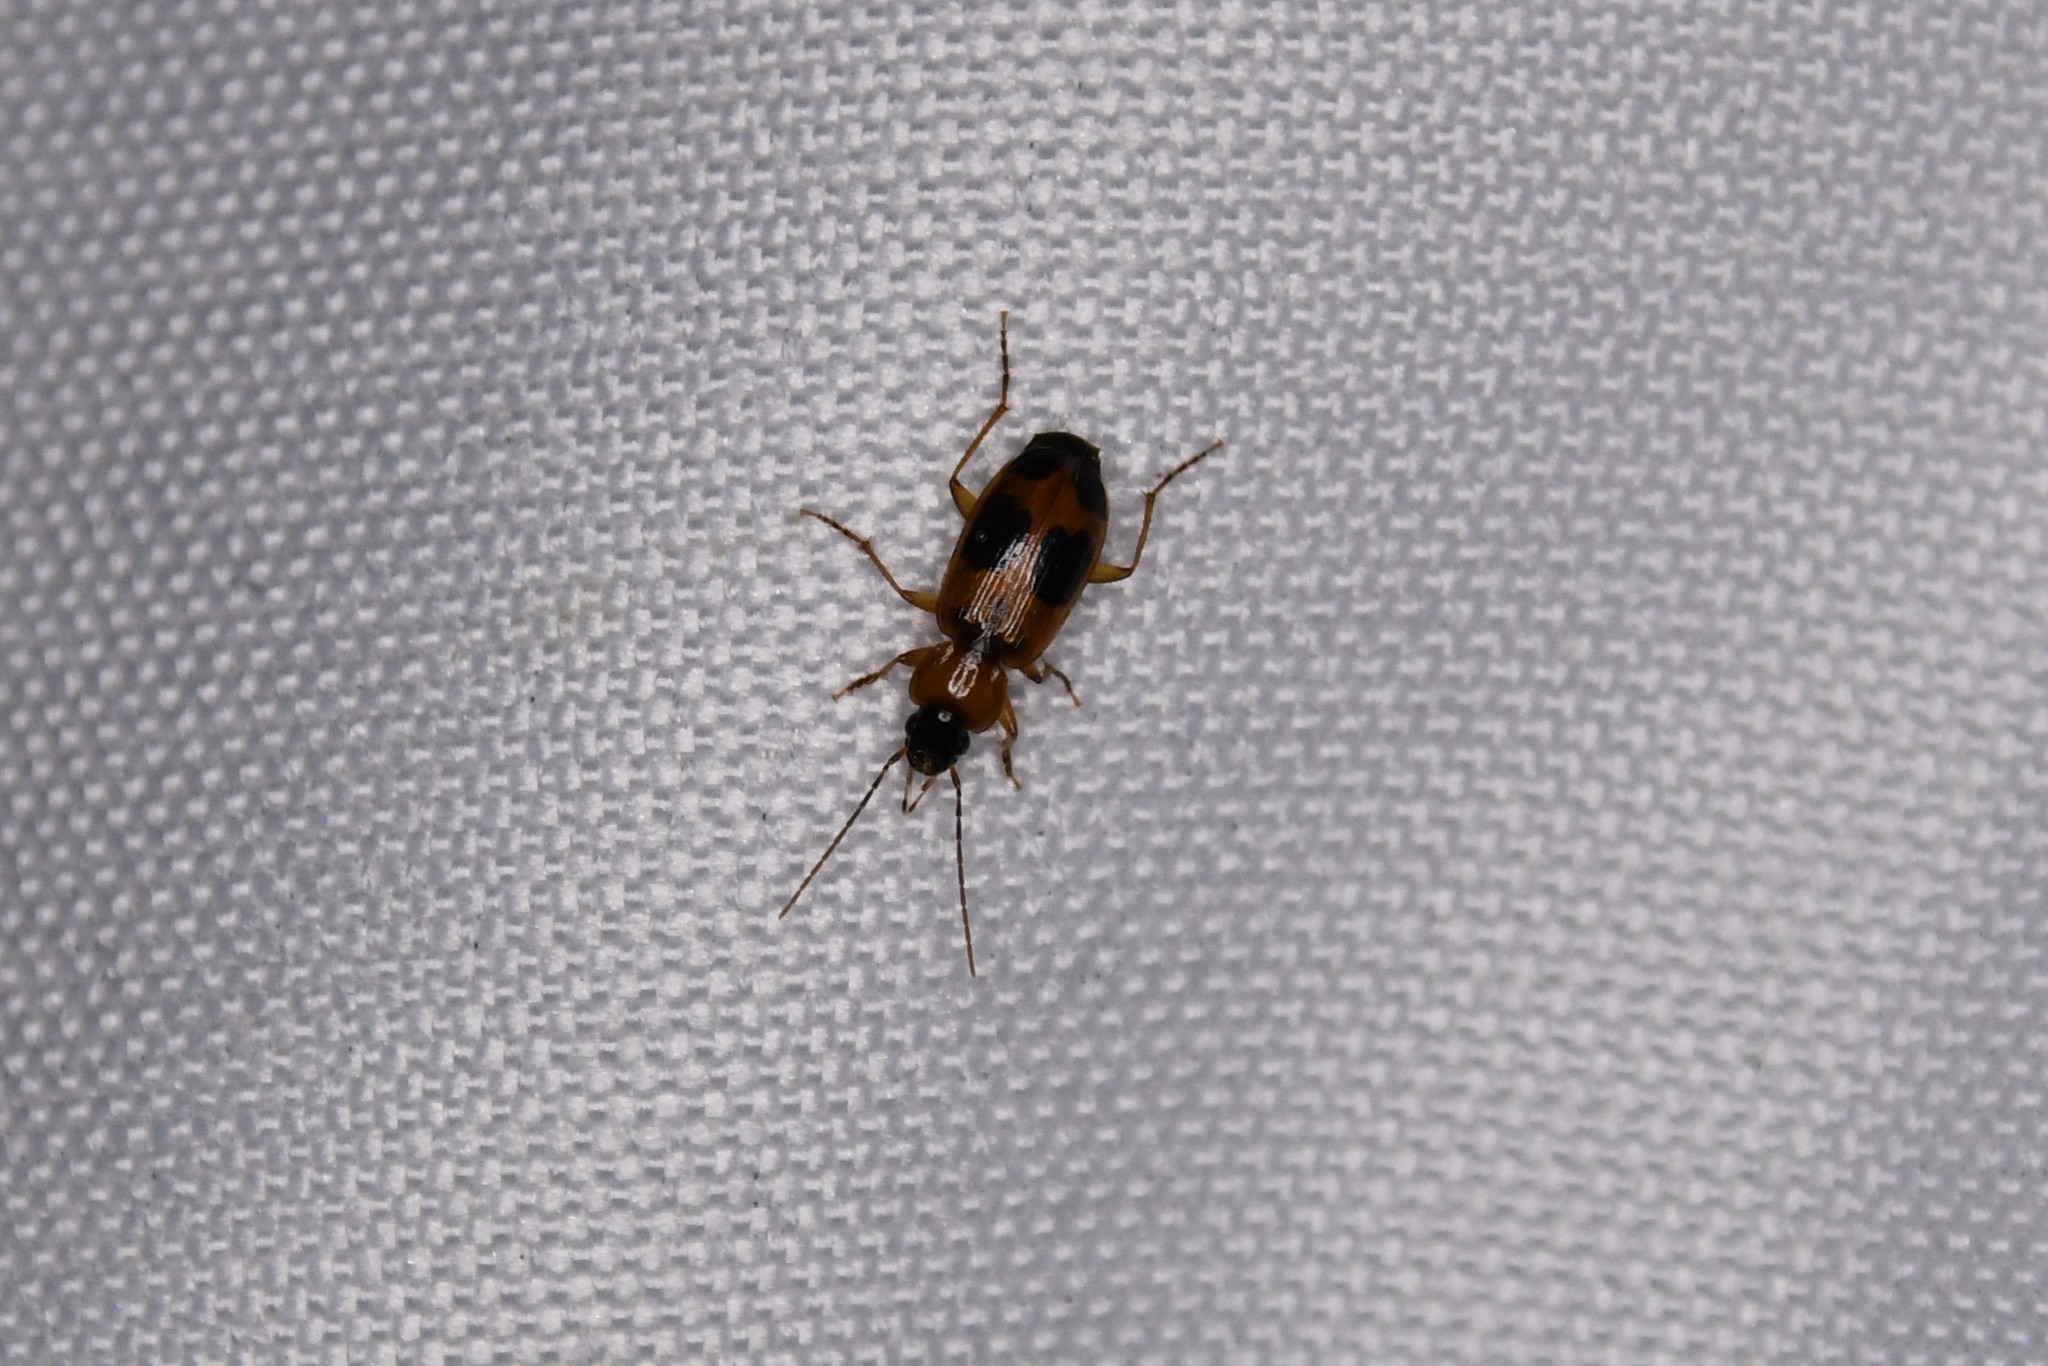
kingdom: Animalia
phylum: Arthropoda
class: Insecta
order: Coleoptera
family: Carabidae
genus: Badister
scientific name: Badister neopulchellus
